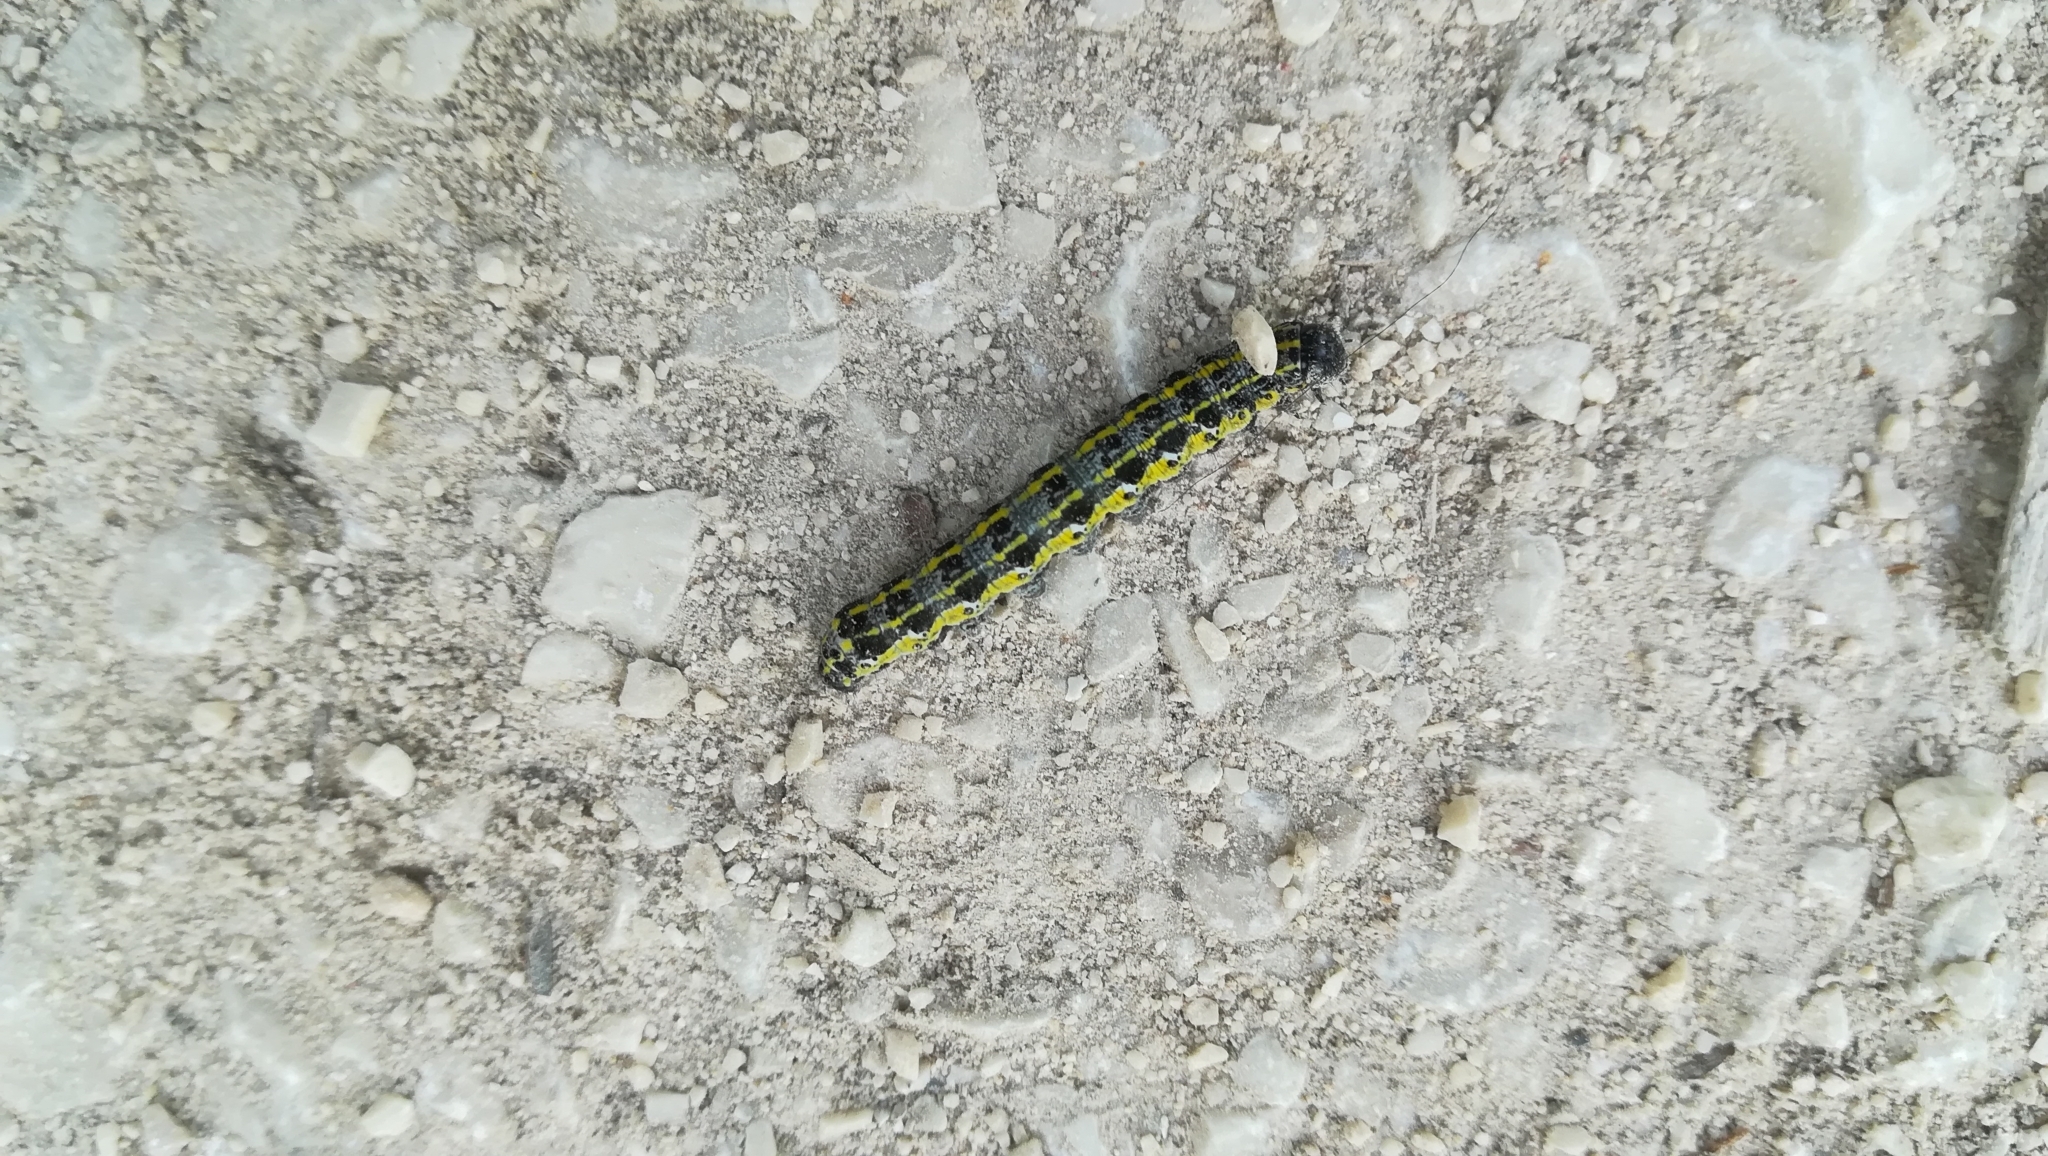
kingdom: Animalia
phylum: Arthropoda
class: Insecta
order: Lepidoptera
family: Noctuidae
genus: Orthosia
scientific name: Orthosia miniosa
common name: Blossom underwing
